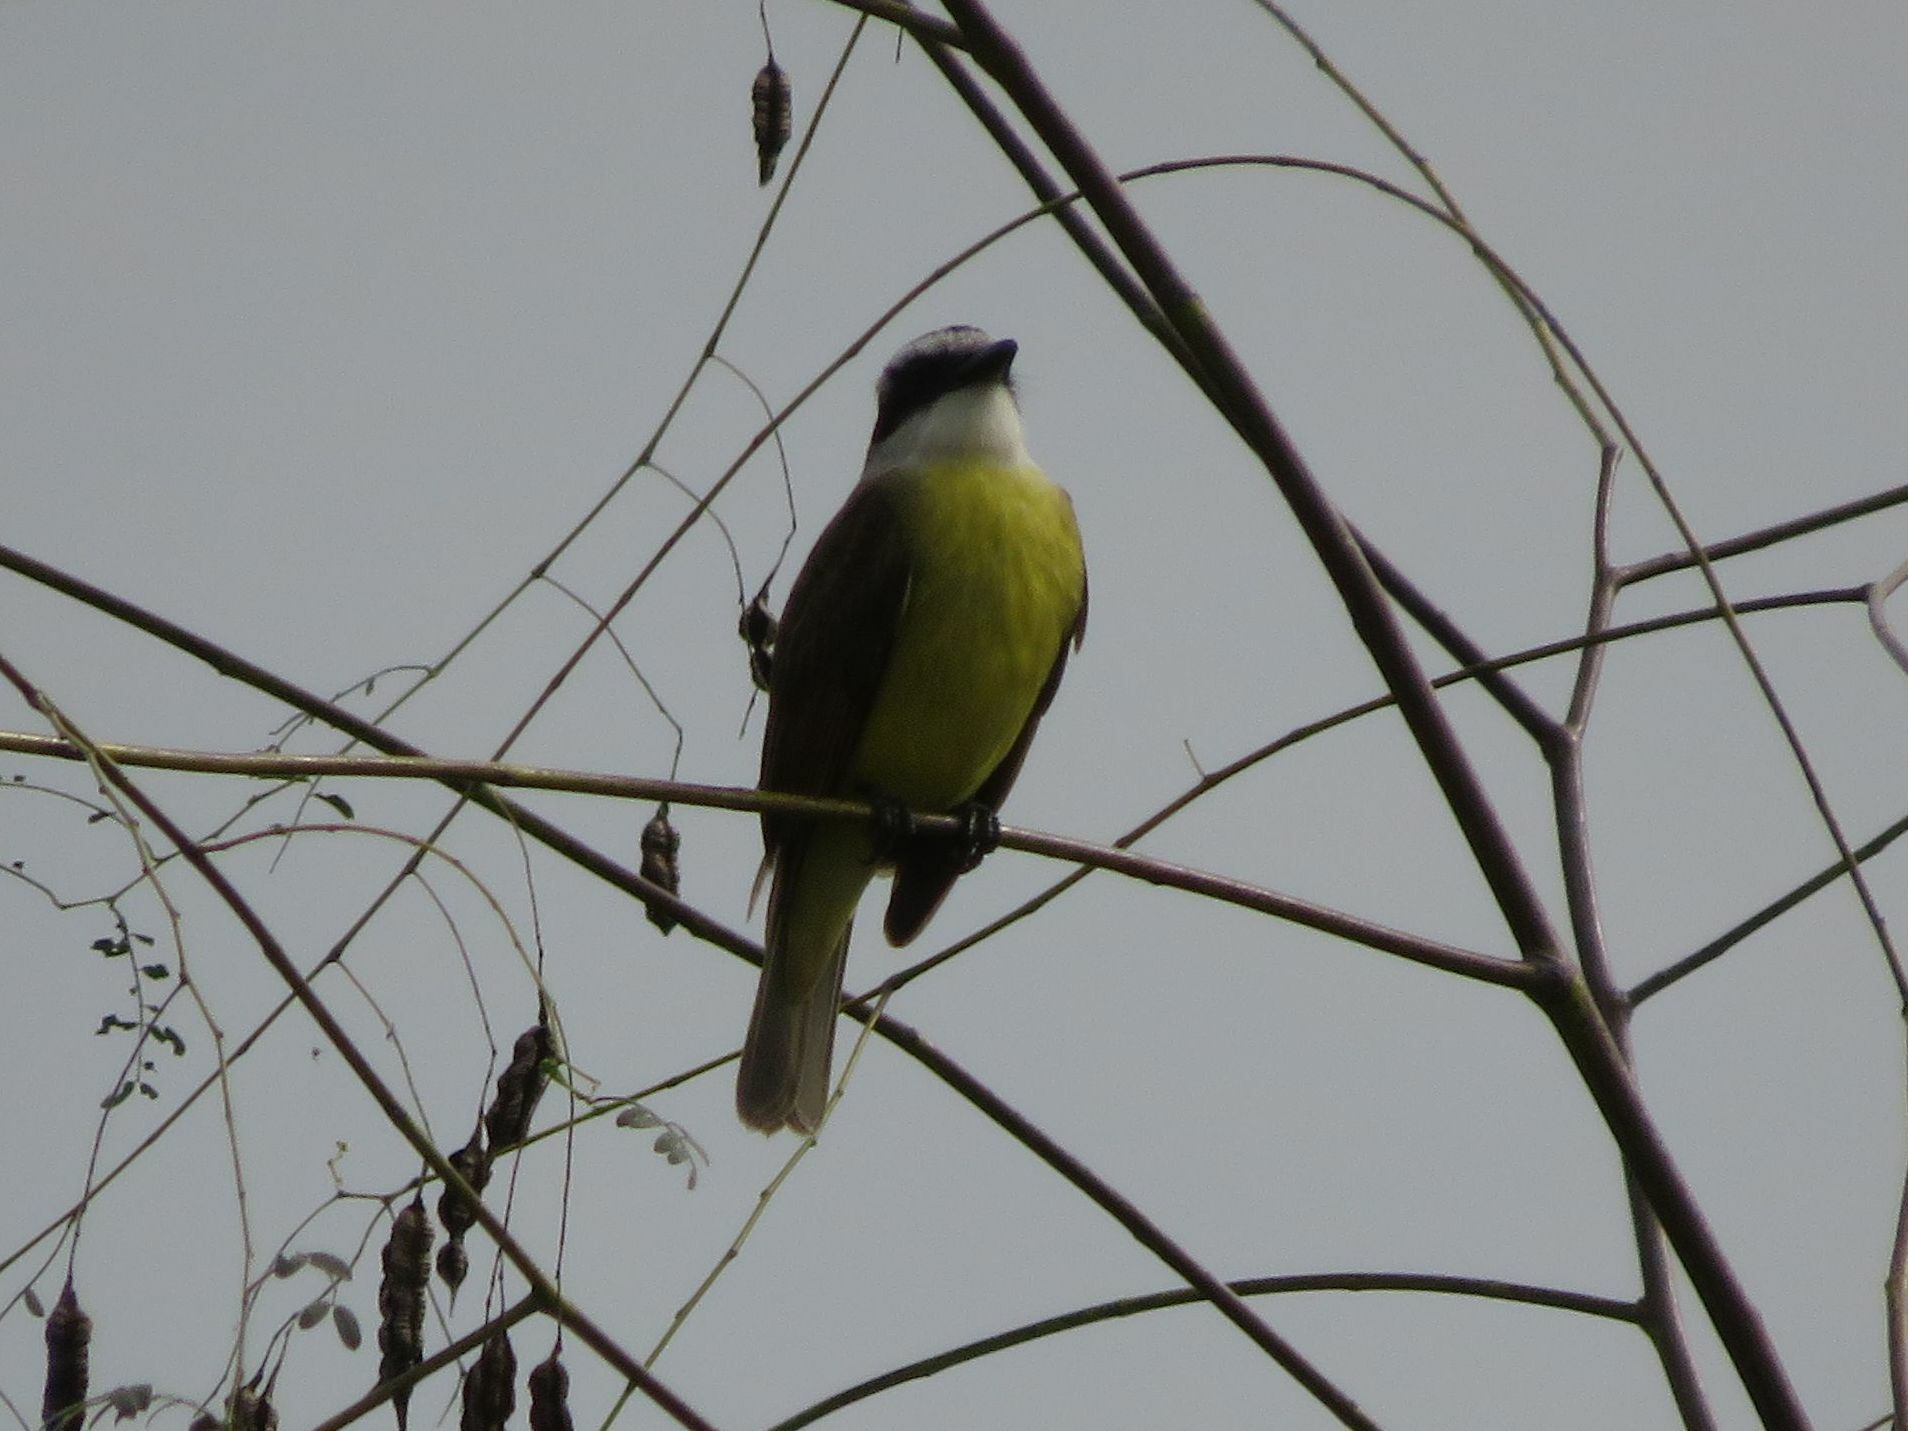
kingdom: Animalia
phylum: Chordata
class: Aves
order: Passeriformes
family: Tyrannidae
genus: Pitangus
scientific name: Pitangus sulphuratus
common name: Great kiskadee
